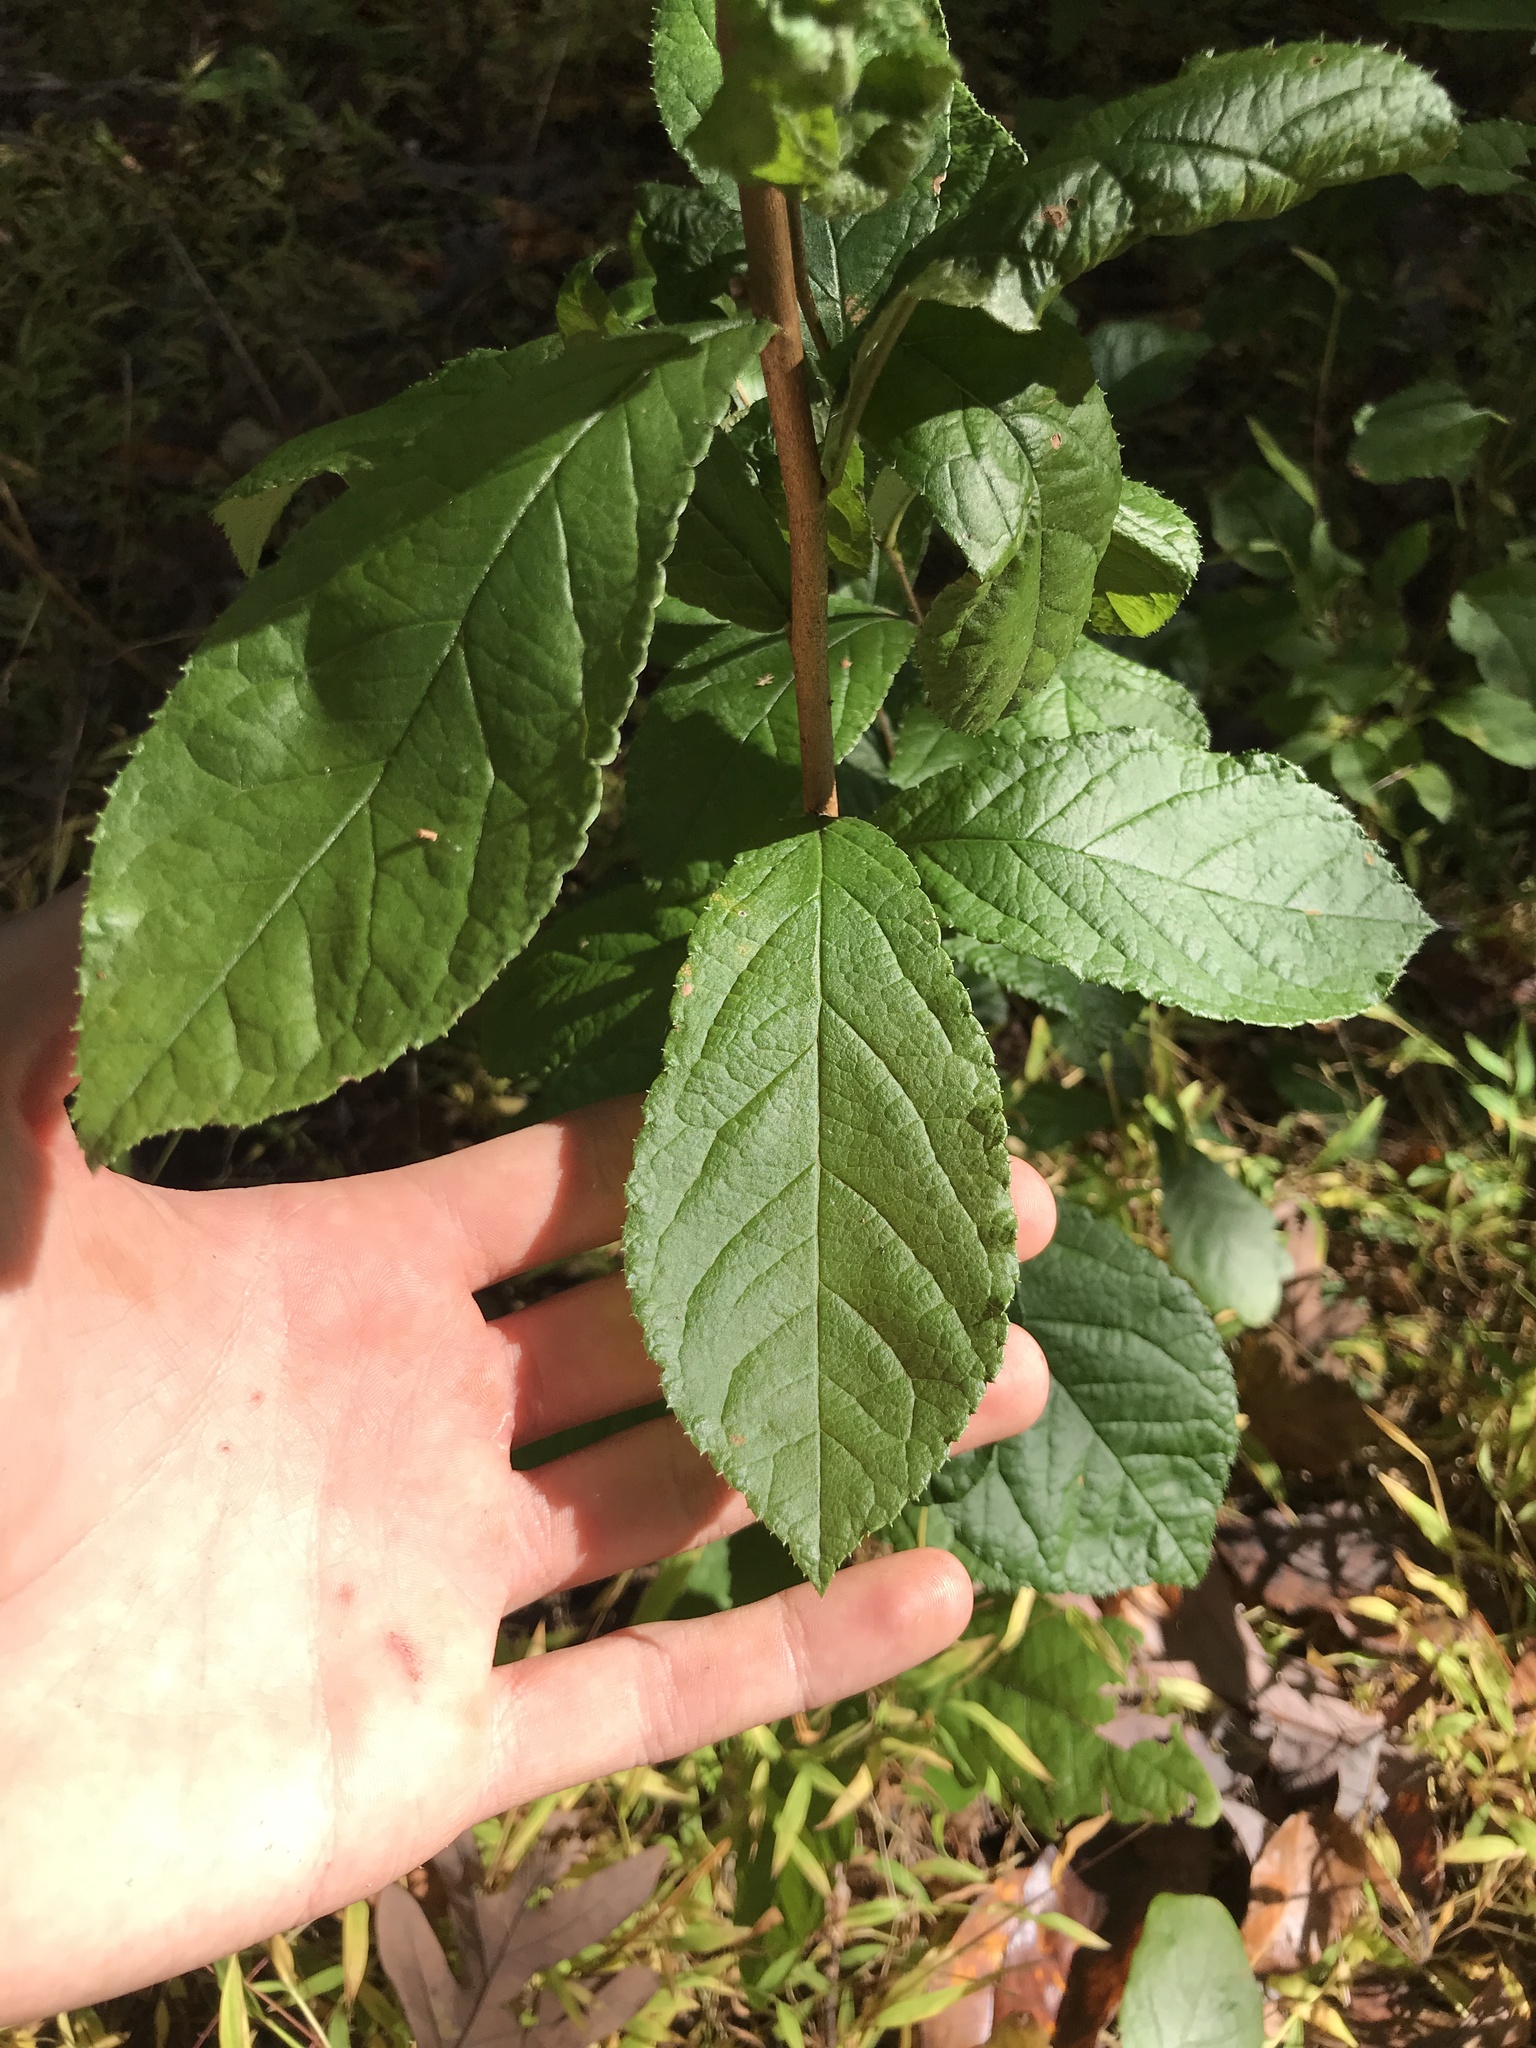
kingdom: Plantae
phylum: Tracheophyta
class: Magnoliopsida
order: Rosales
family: Rosaceae
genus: Pourthiaea
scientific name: Pourthiaea villosa
